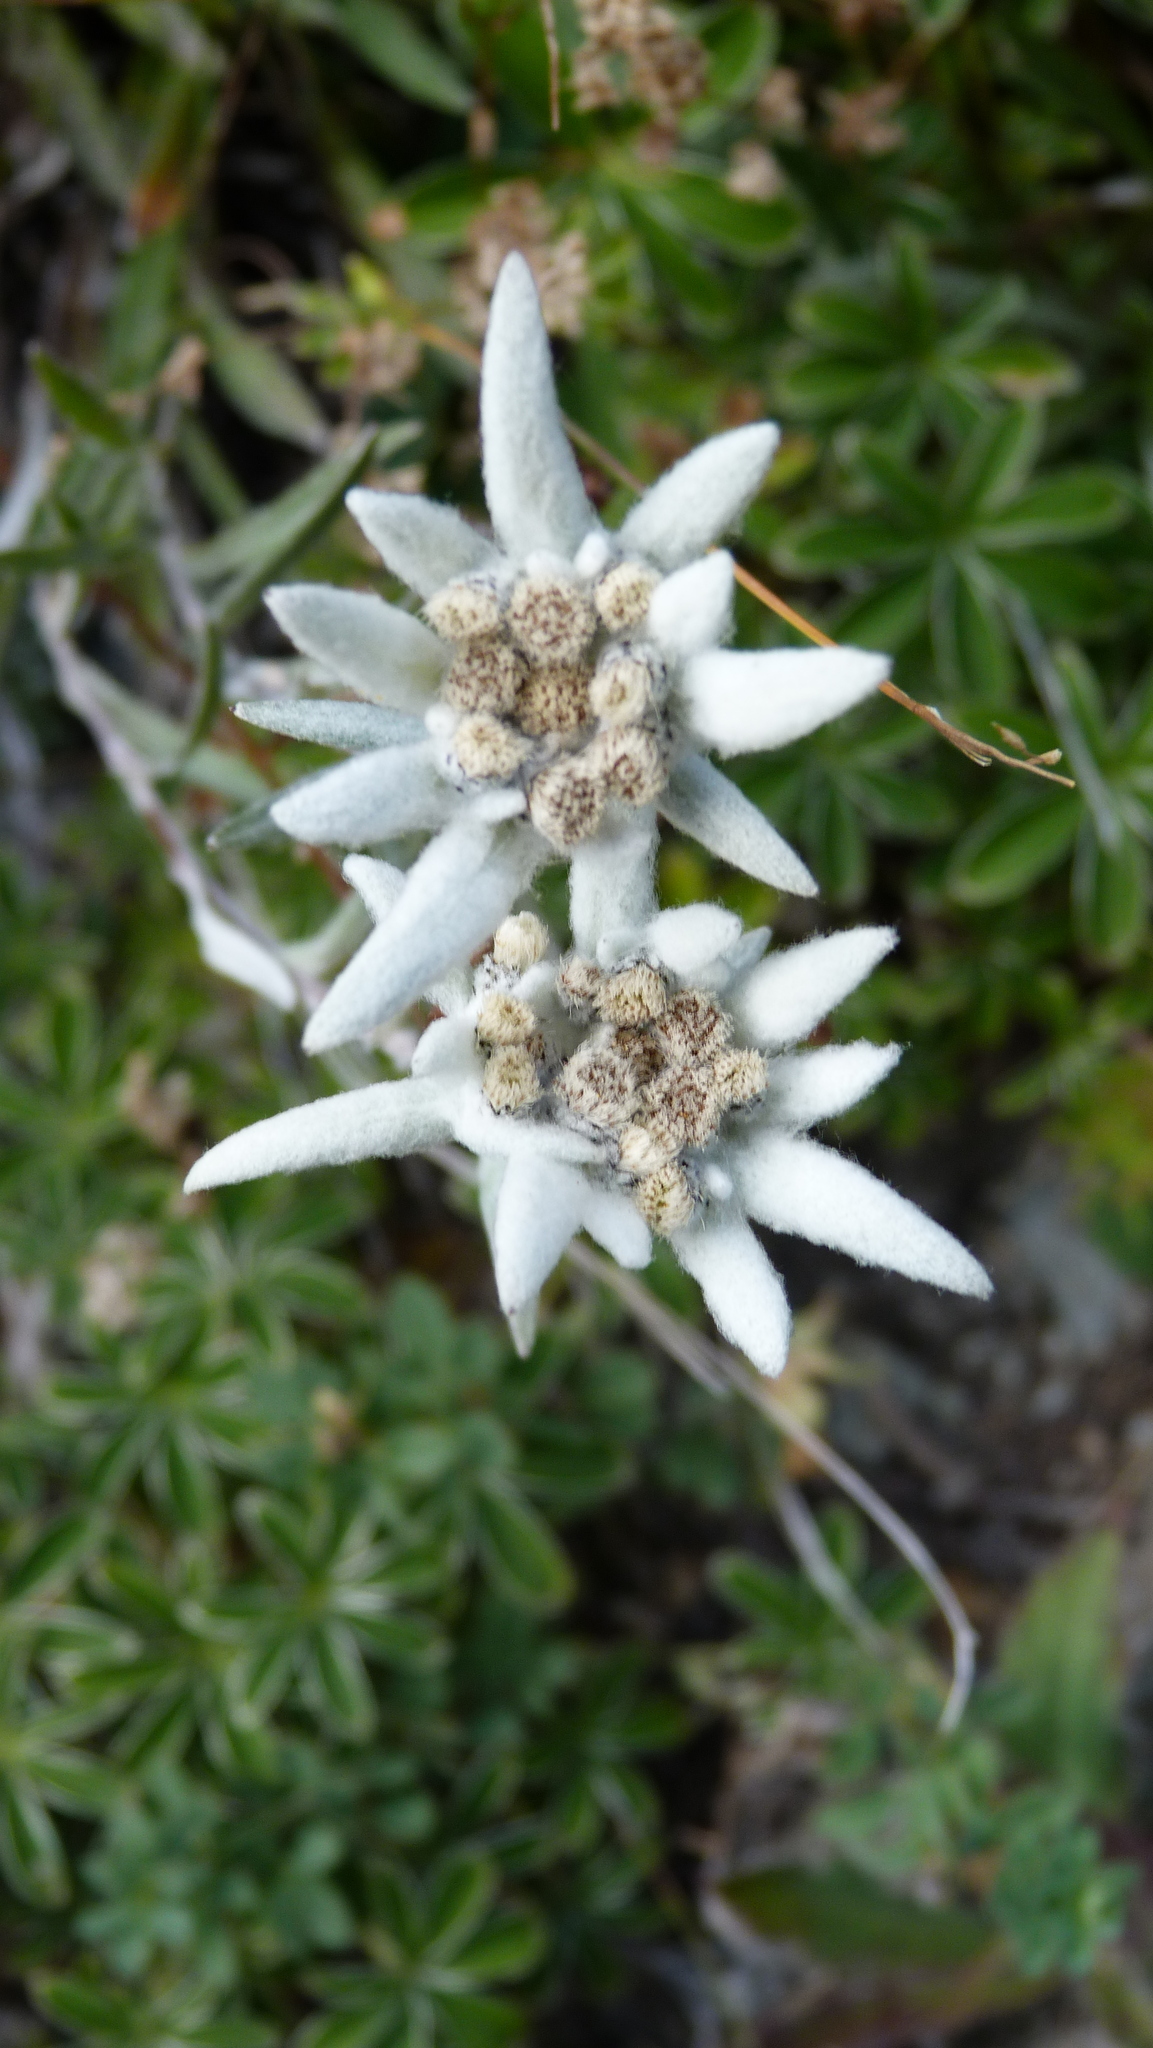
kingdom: Plantae
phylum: Tracheophyta
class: Magnoliopsida
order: Asterales
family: Asteraceae
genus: Leontopodium
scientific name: Leontopodium nivale
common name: Edelweiss
